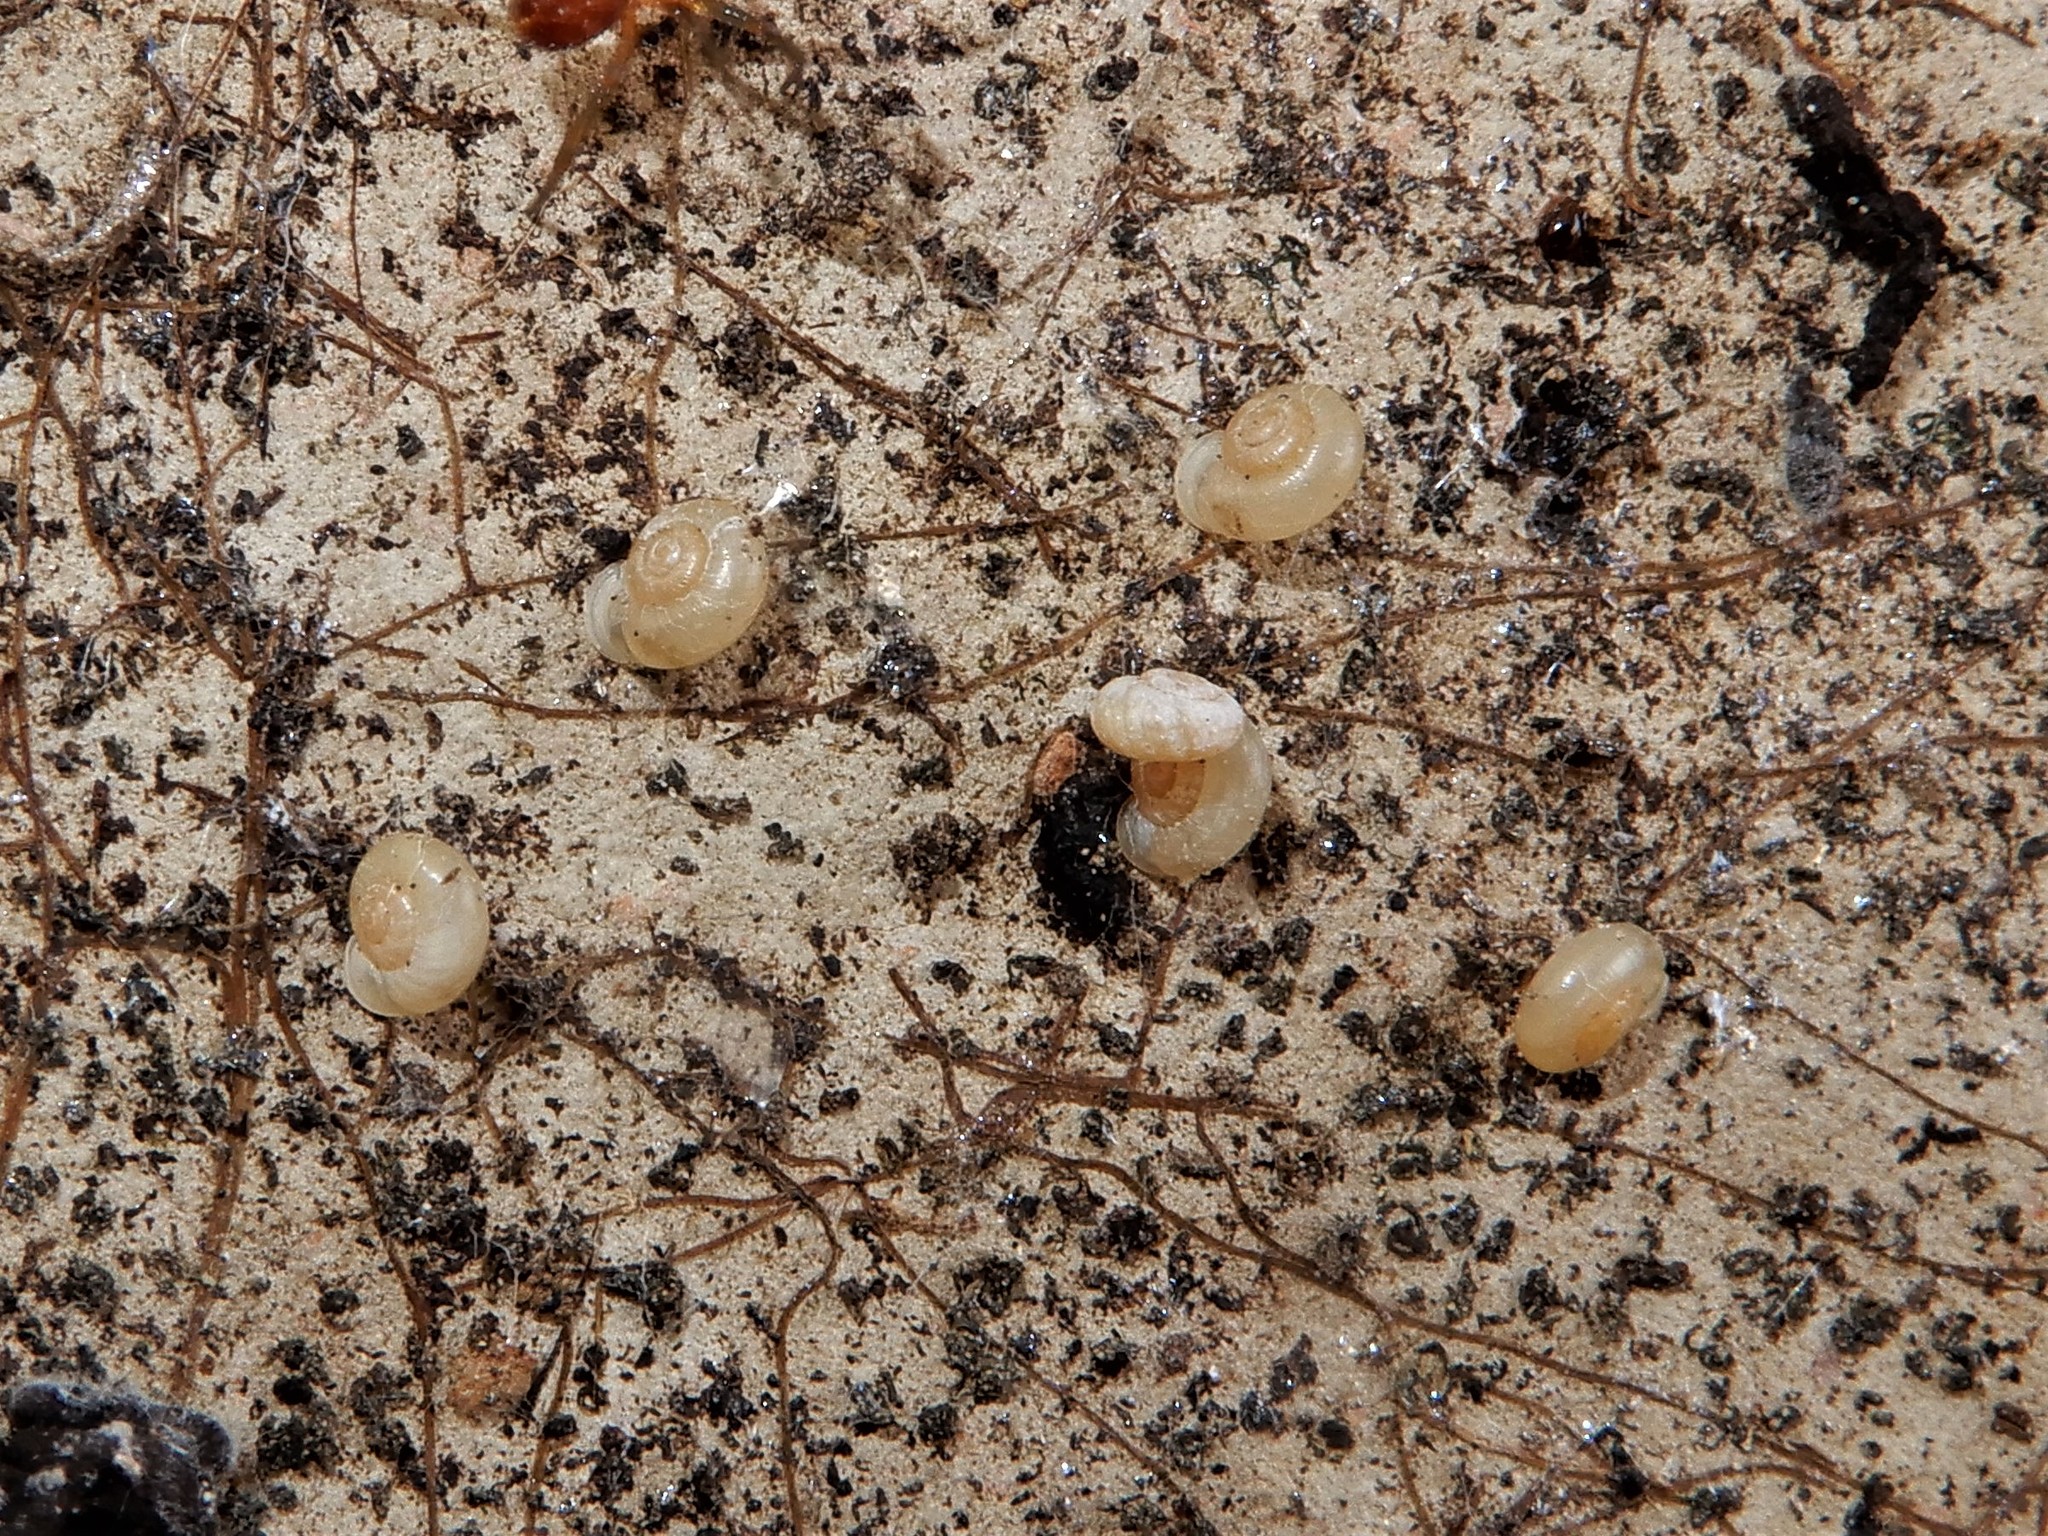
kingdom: Animalia
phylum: Mollusca
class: Gastropoda
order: Stylommatophora
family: Valloniidae
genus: Vallonia
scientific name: Vallonia excentrica
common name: Eccentric grass snail
